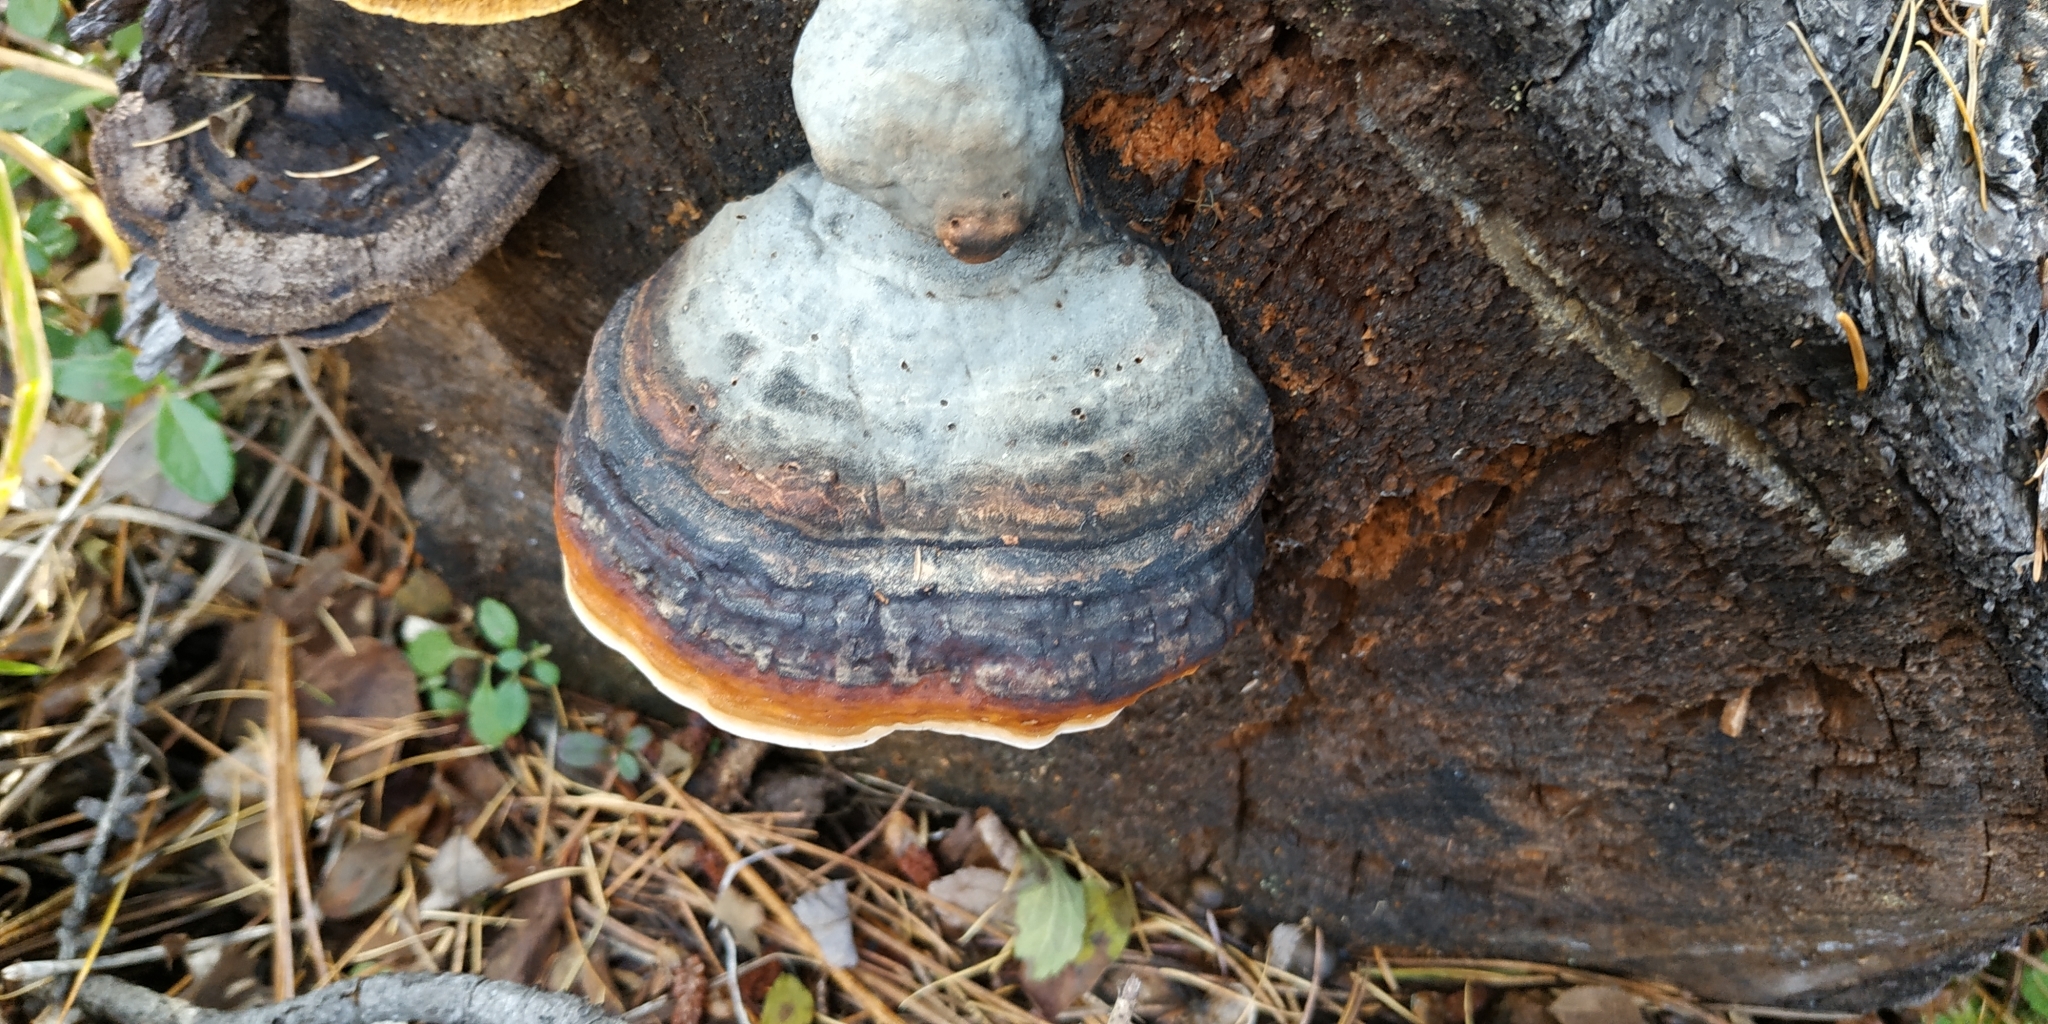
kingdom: Fungi
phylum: Basidiomycota
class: Agaricomycetes
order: Polyporales
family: Fomitopsidaceae
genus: Fomitopsis
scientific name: Fomitopsis pinicola
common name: Red-belted bracket
